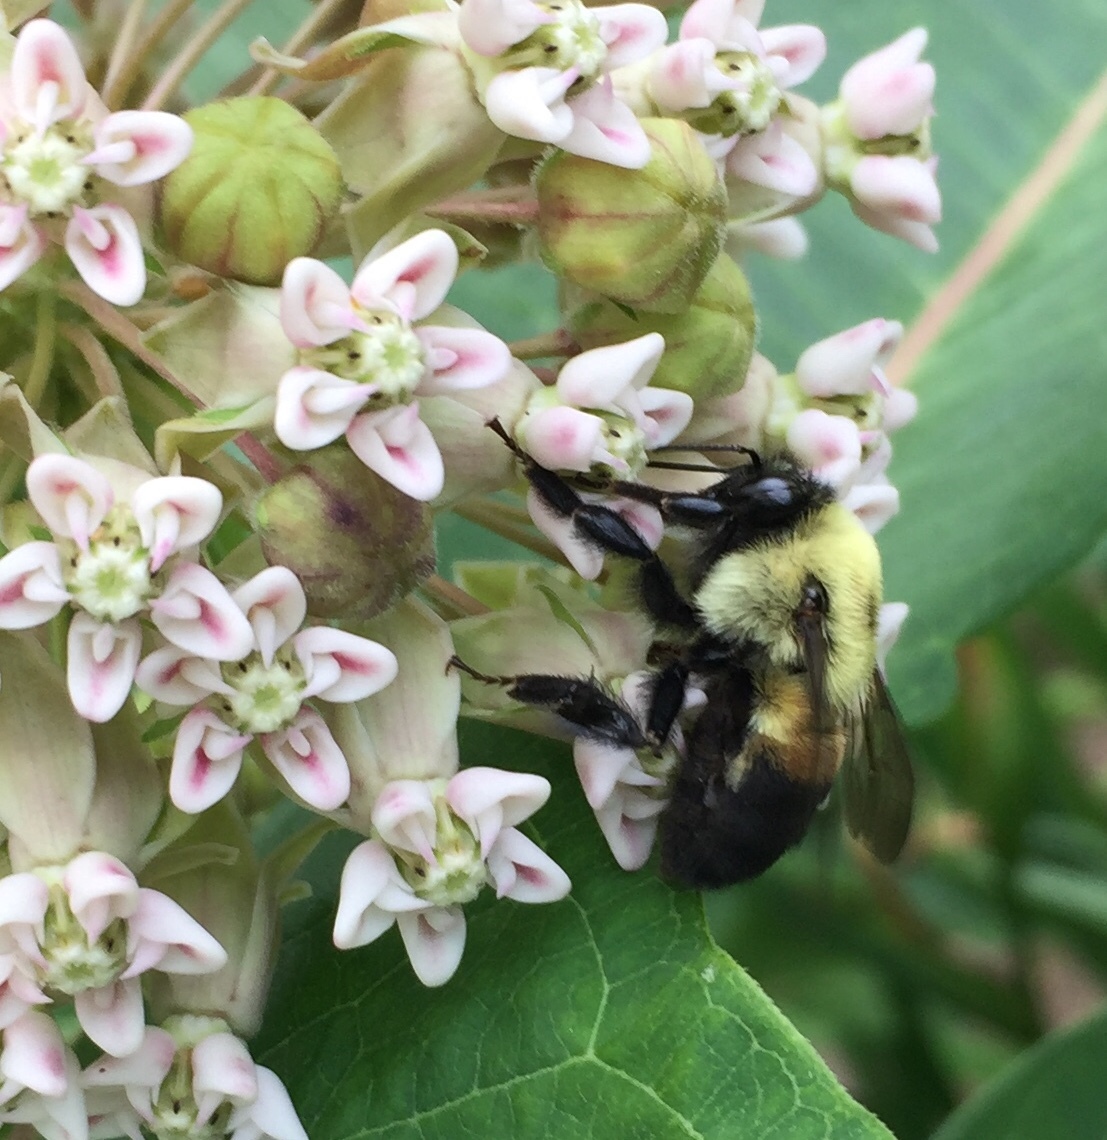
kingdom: Animalia
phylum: Arthropoda
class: Insecta
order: Hymenoptera
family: Apidae
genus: Bombus
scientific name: Bombus griseocollis
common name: Brown-belted bumble bee
